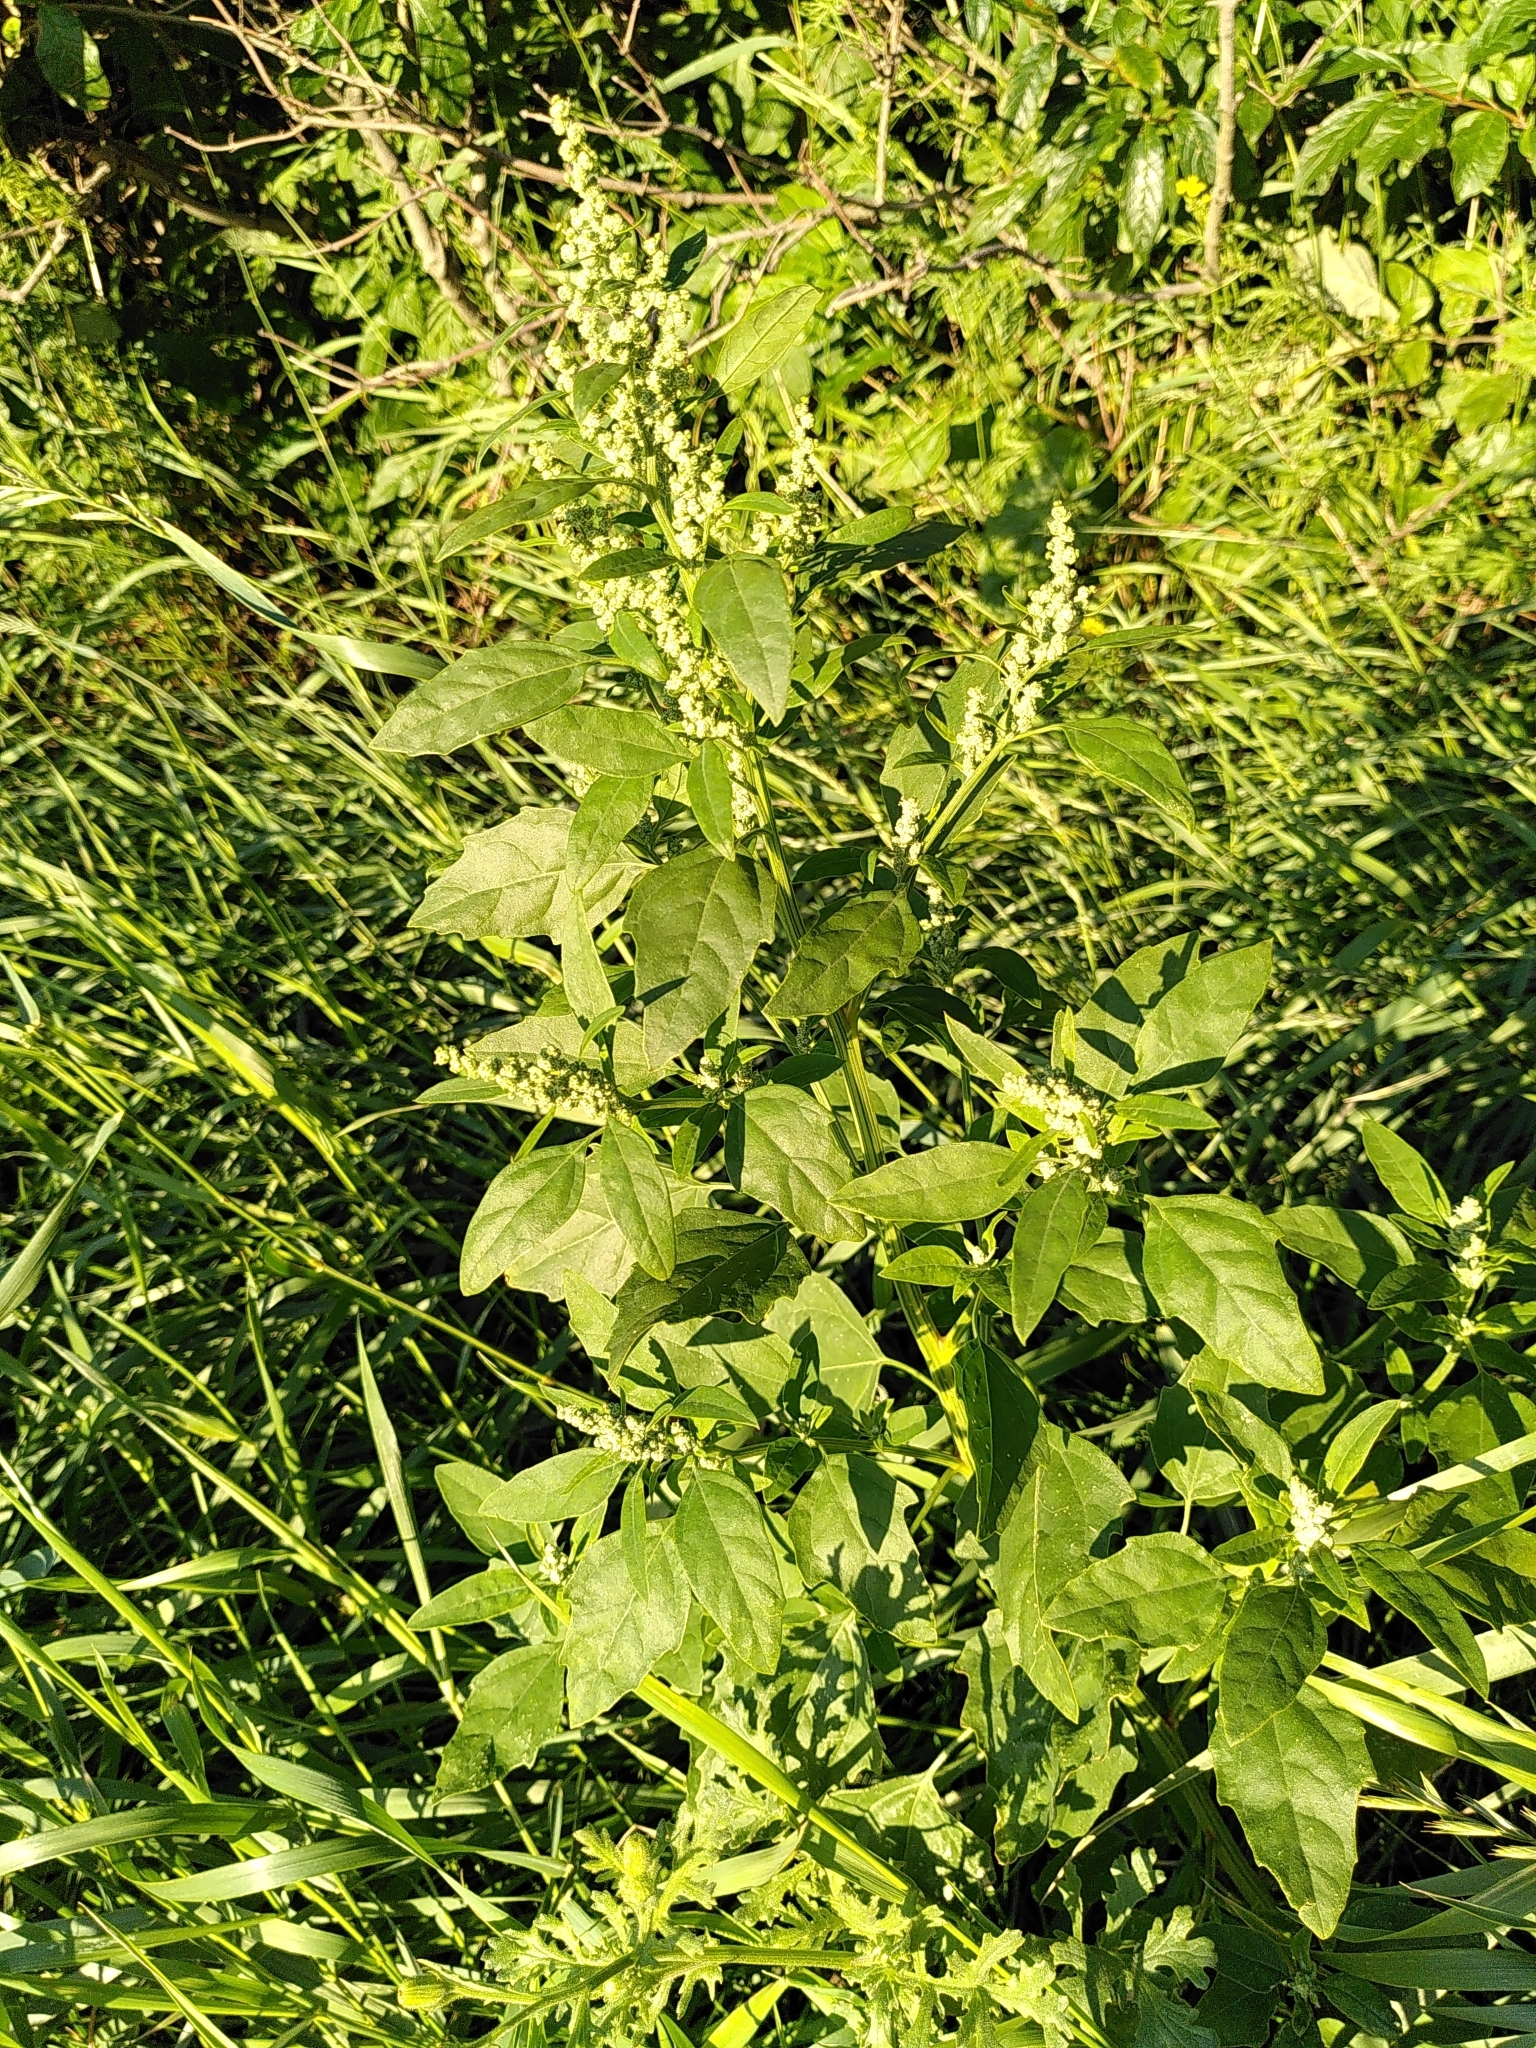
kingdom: Plantae
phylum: Tracheophyta
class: Magnoliopsida
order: Caryophyllales
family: Amaranthaceae
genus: Chenopodium
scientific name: Chenopodium album
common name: Fat-hen
